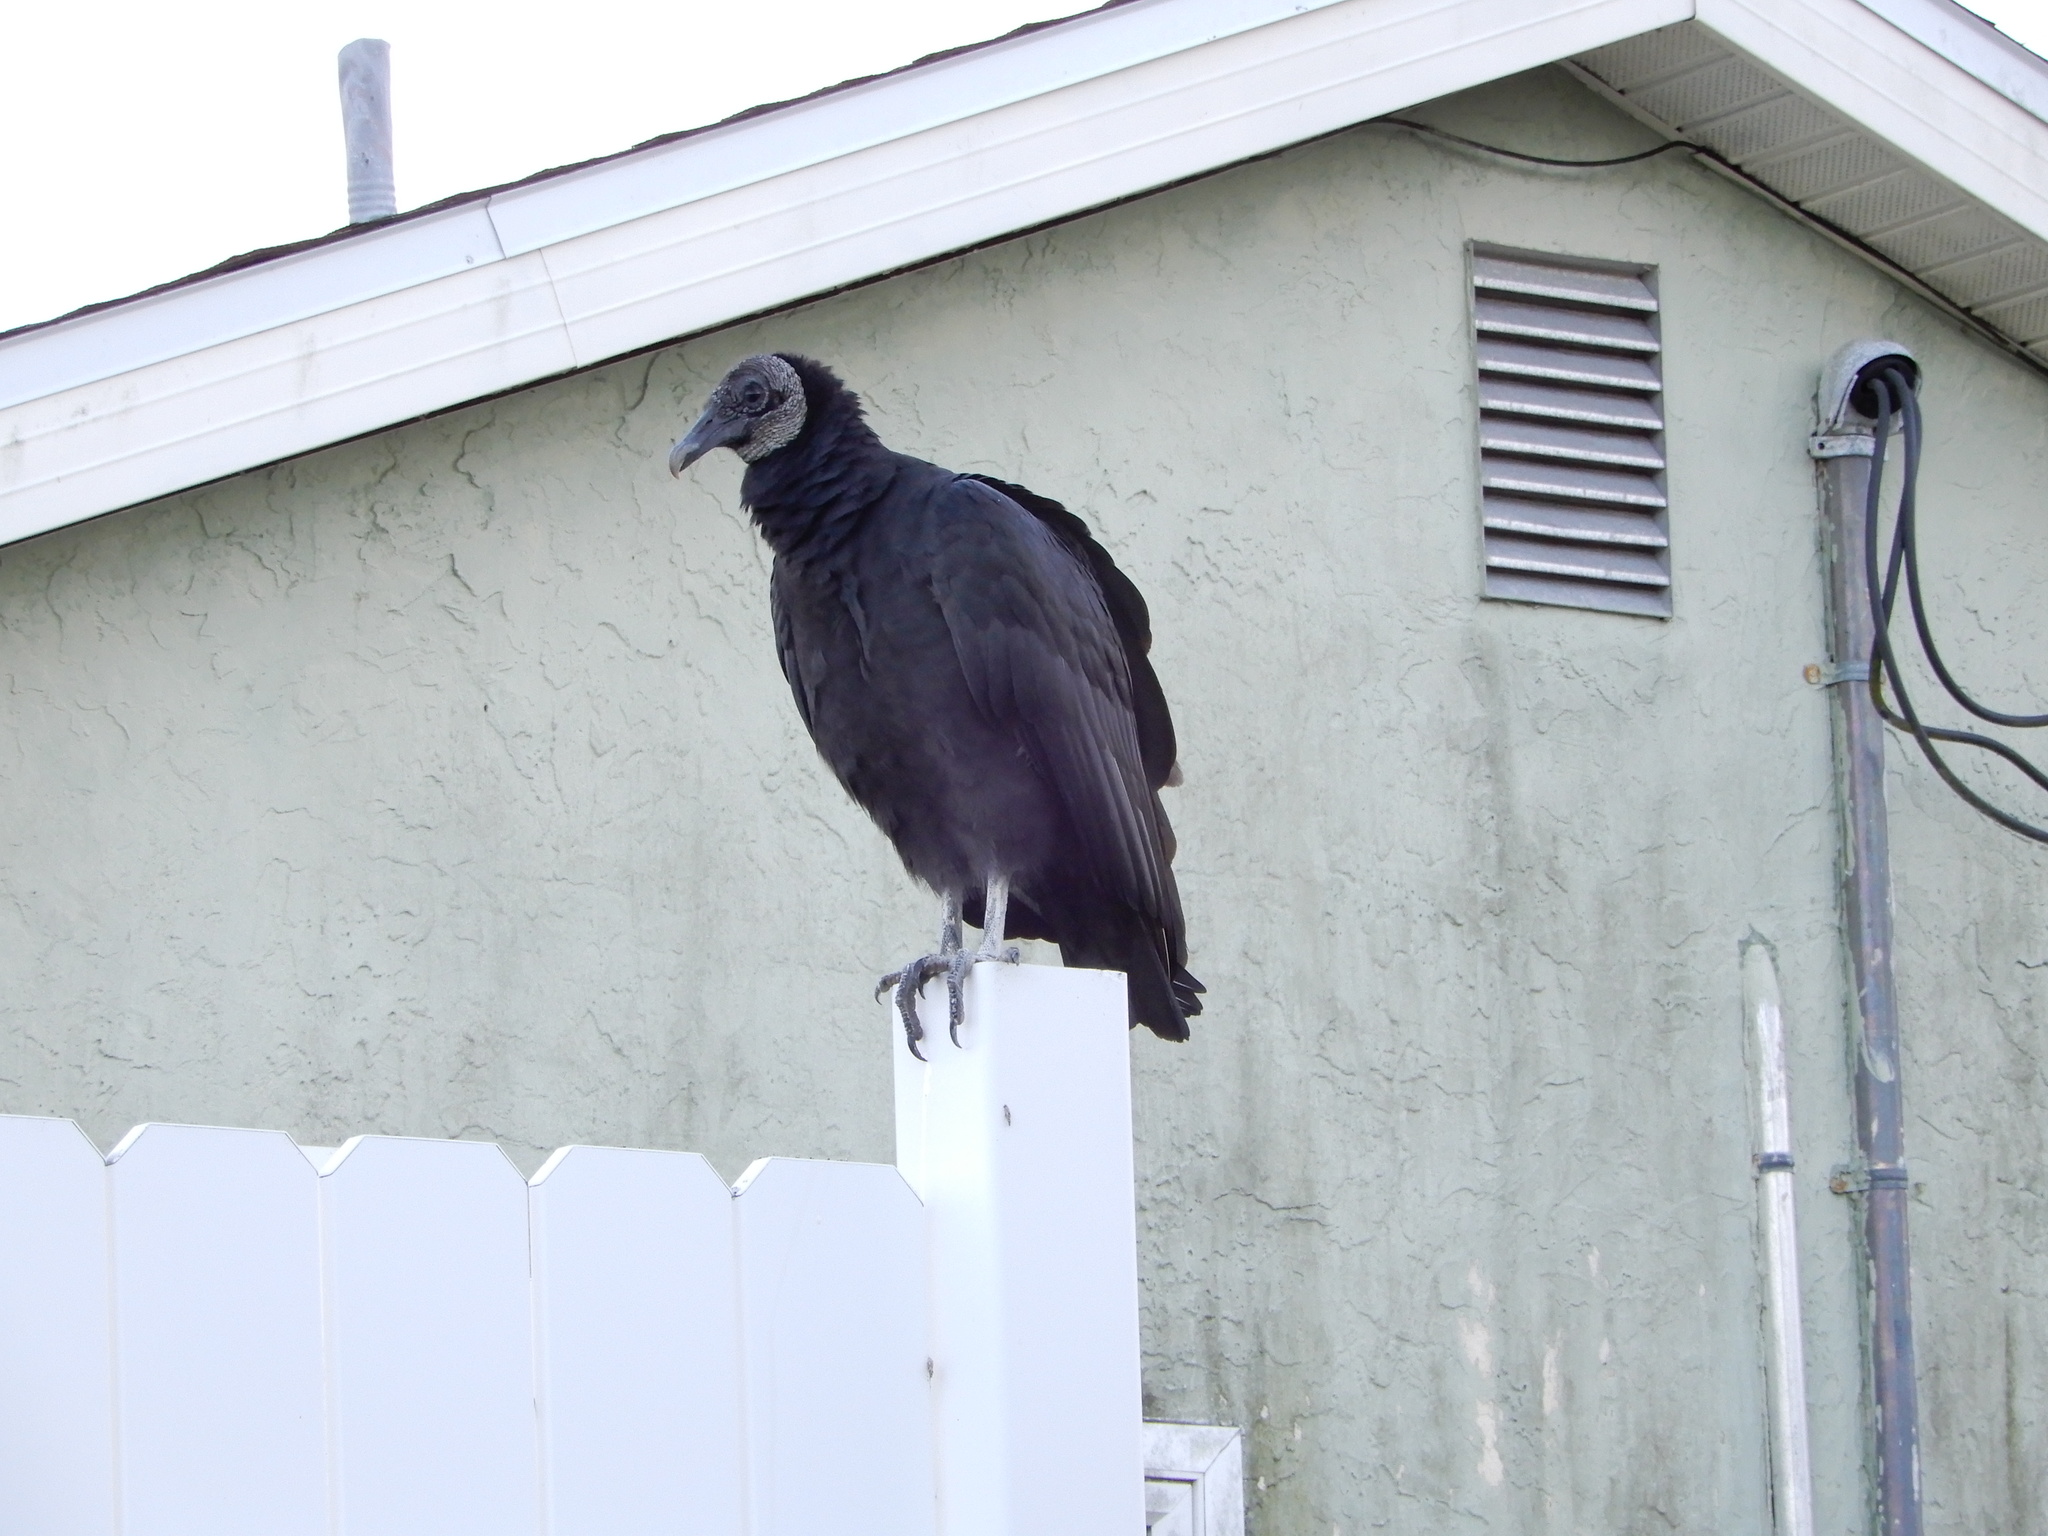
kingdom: Animalia
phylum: Chordata
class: Aves
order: Accipitriformes
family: Cathartidae
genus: Coragyps
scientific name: Coragyps atratus
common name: Black vulture
